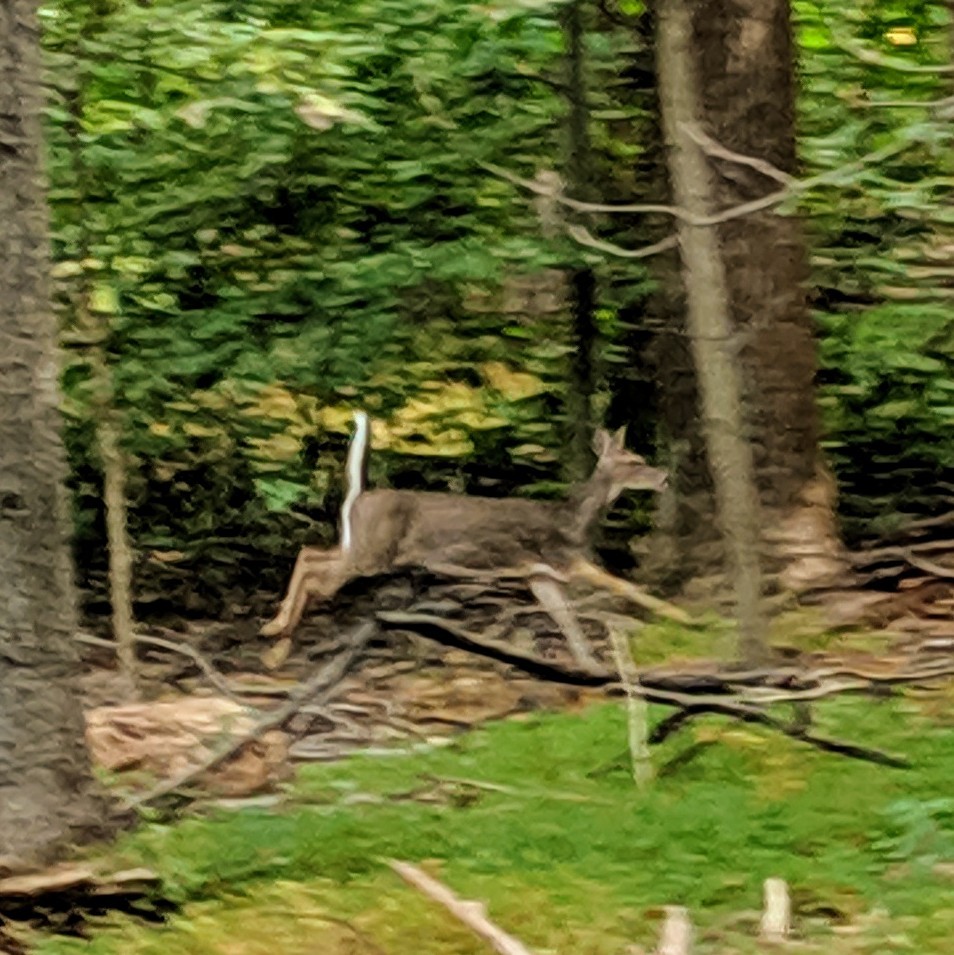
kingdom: Animalia
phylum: Chordata
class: Mammalia
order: Artiodactyla
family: Cervidae
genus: Odocoileus
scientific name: Odocoileus virginianus
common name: White-tailed deer
